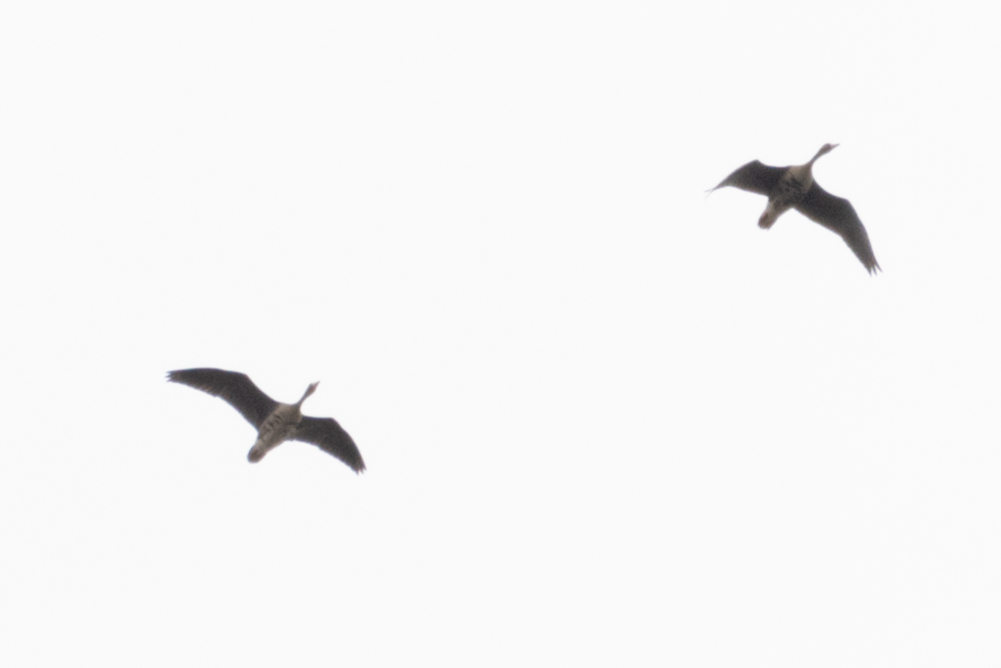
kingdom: Animalia
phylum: Chordata
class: Aves
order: Anseriformes
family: Anatidae
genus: Anser
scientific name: Anser albifrons
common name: Greater white-fronted goose
